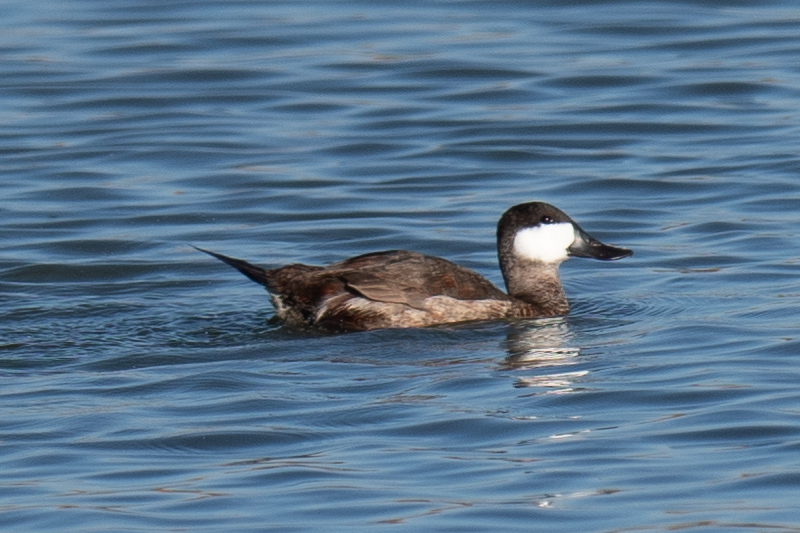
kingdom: Animalia
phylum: Chordata
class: Aves
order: Anseriformes
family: Anatidae
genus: Oxyura
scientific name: Oxyura jamaicensis
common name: Ruddy duck
